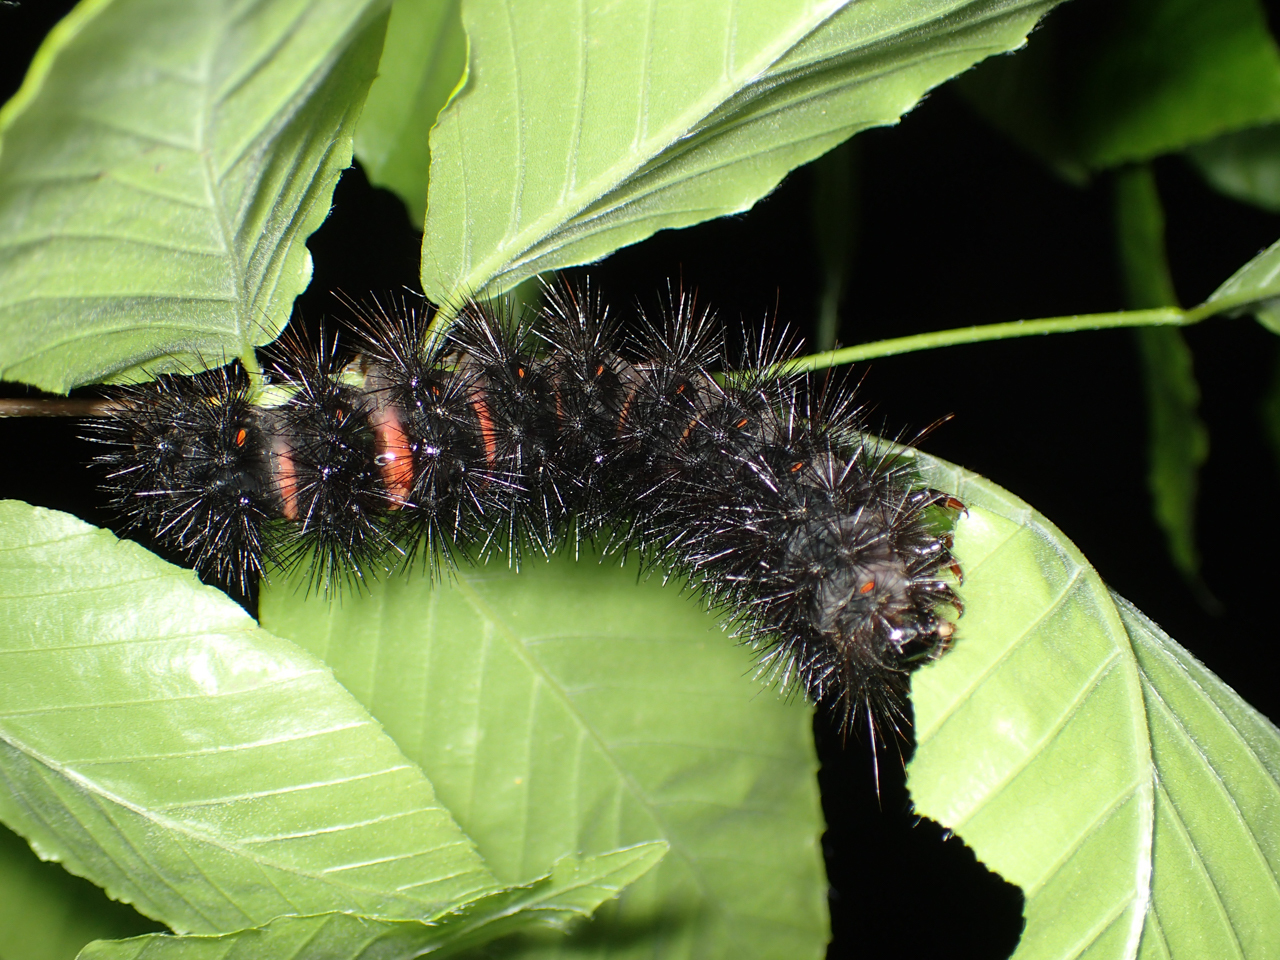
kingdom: Animalia
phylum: Arthropoda
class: Insecta
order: Lepidoptera
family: Erebidae
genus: Hypercompe
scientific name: Hypercompe scribonia
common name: Giant leopard moth
